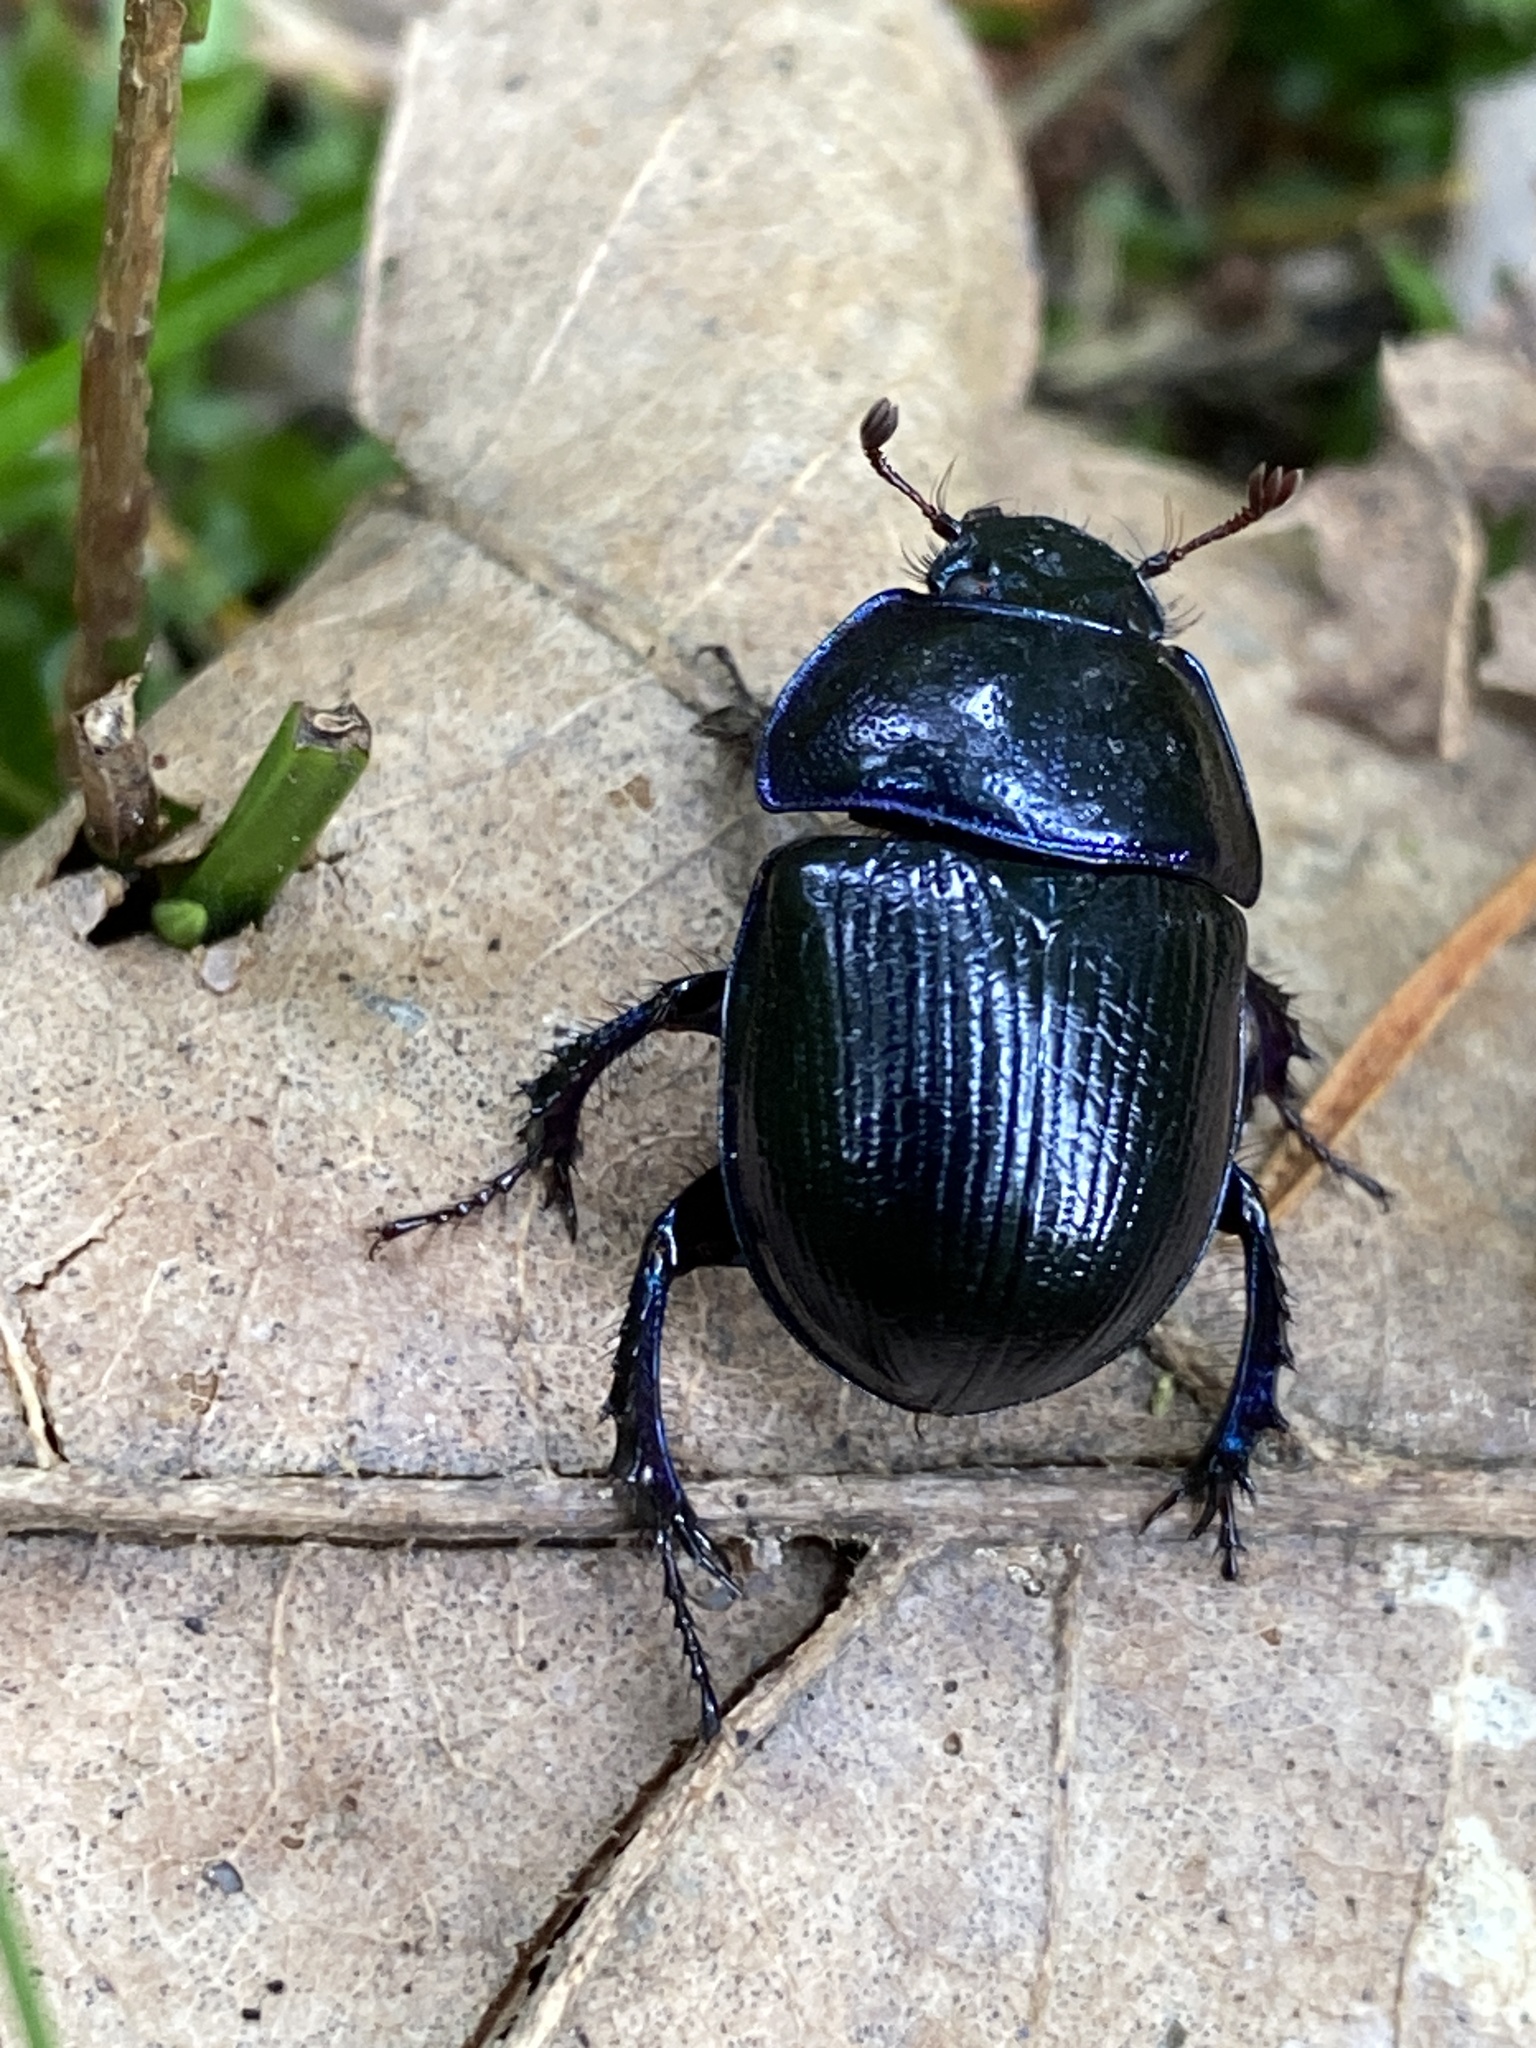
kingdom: Animalia
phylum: Arthropoda
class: Insecta
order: Coleoptera
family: Geotrupidae
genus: Anoplotrupes
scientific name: Anoplotrupes stercorosus
